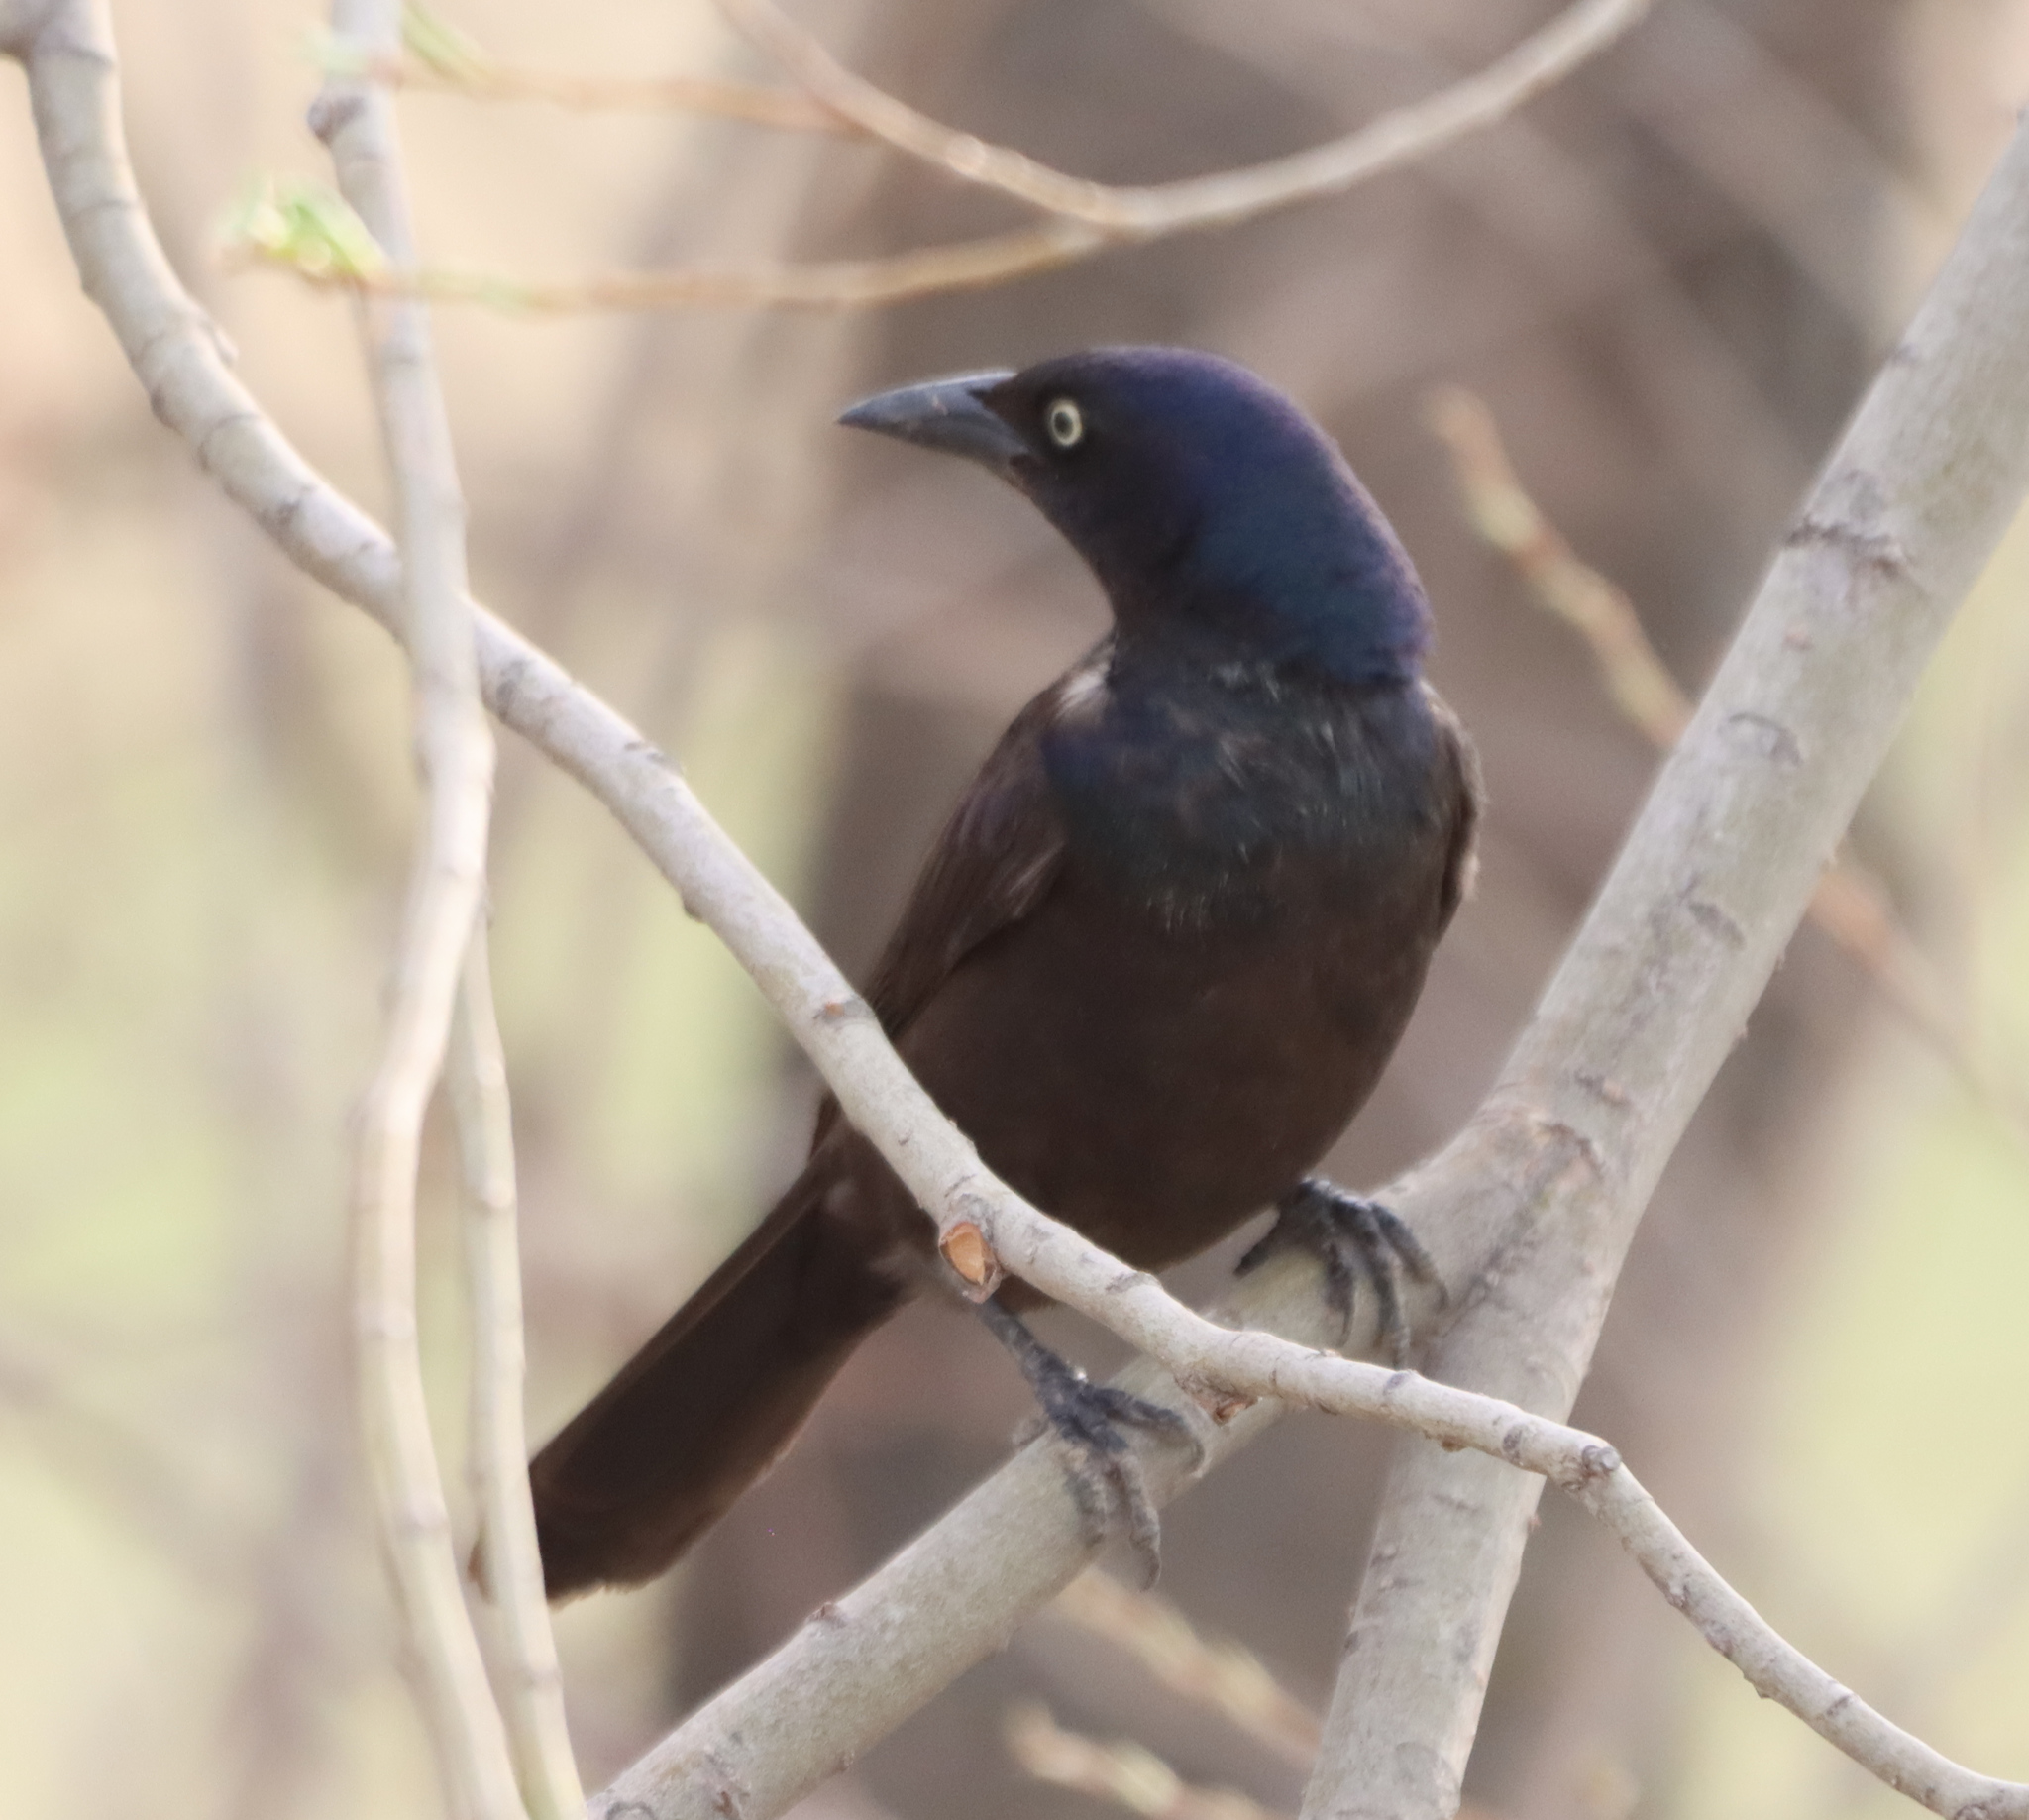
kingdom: Animalia
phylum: Chordata
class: Aves
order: Passeriformes
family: Icteridae
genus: Quiscalus
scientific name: Quiscalus quiscula
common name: Common grackle
